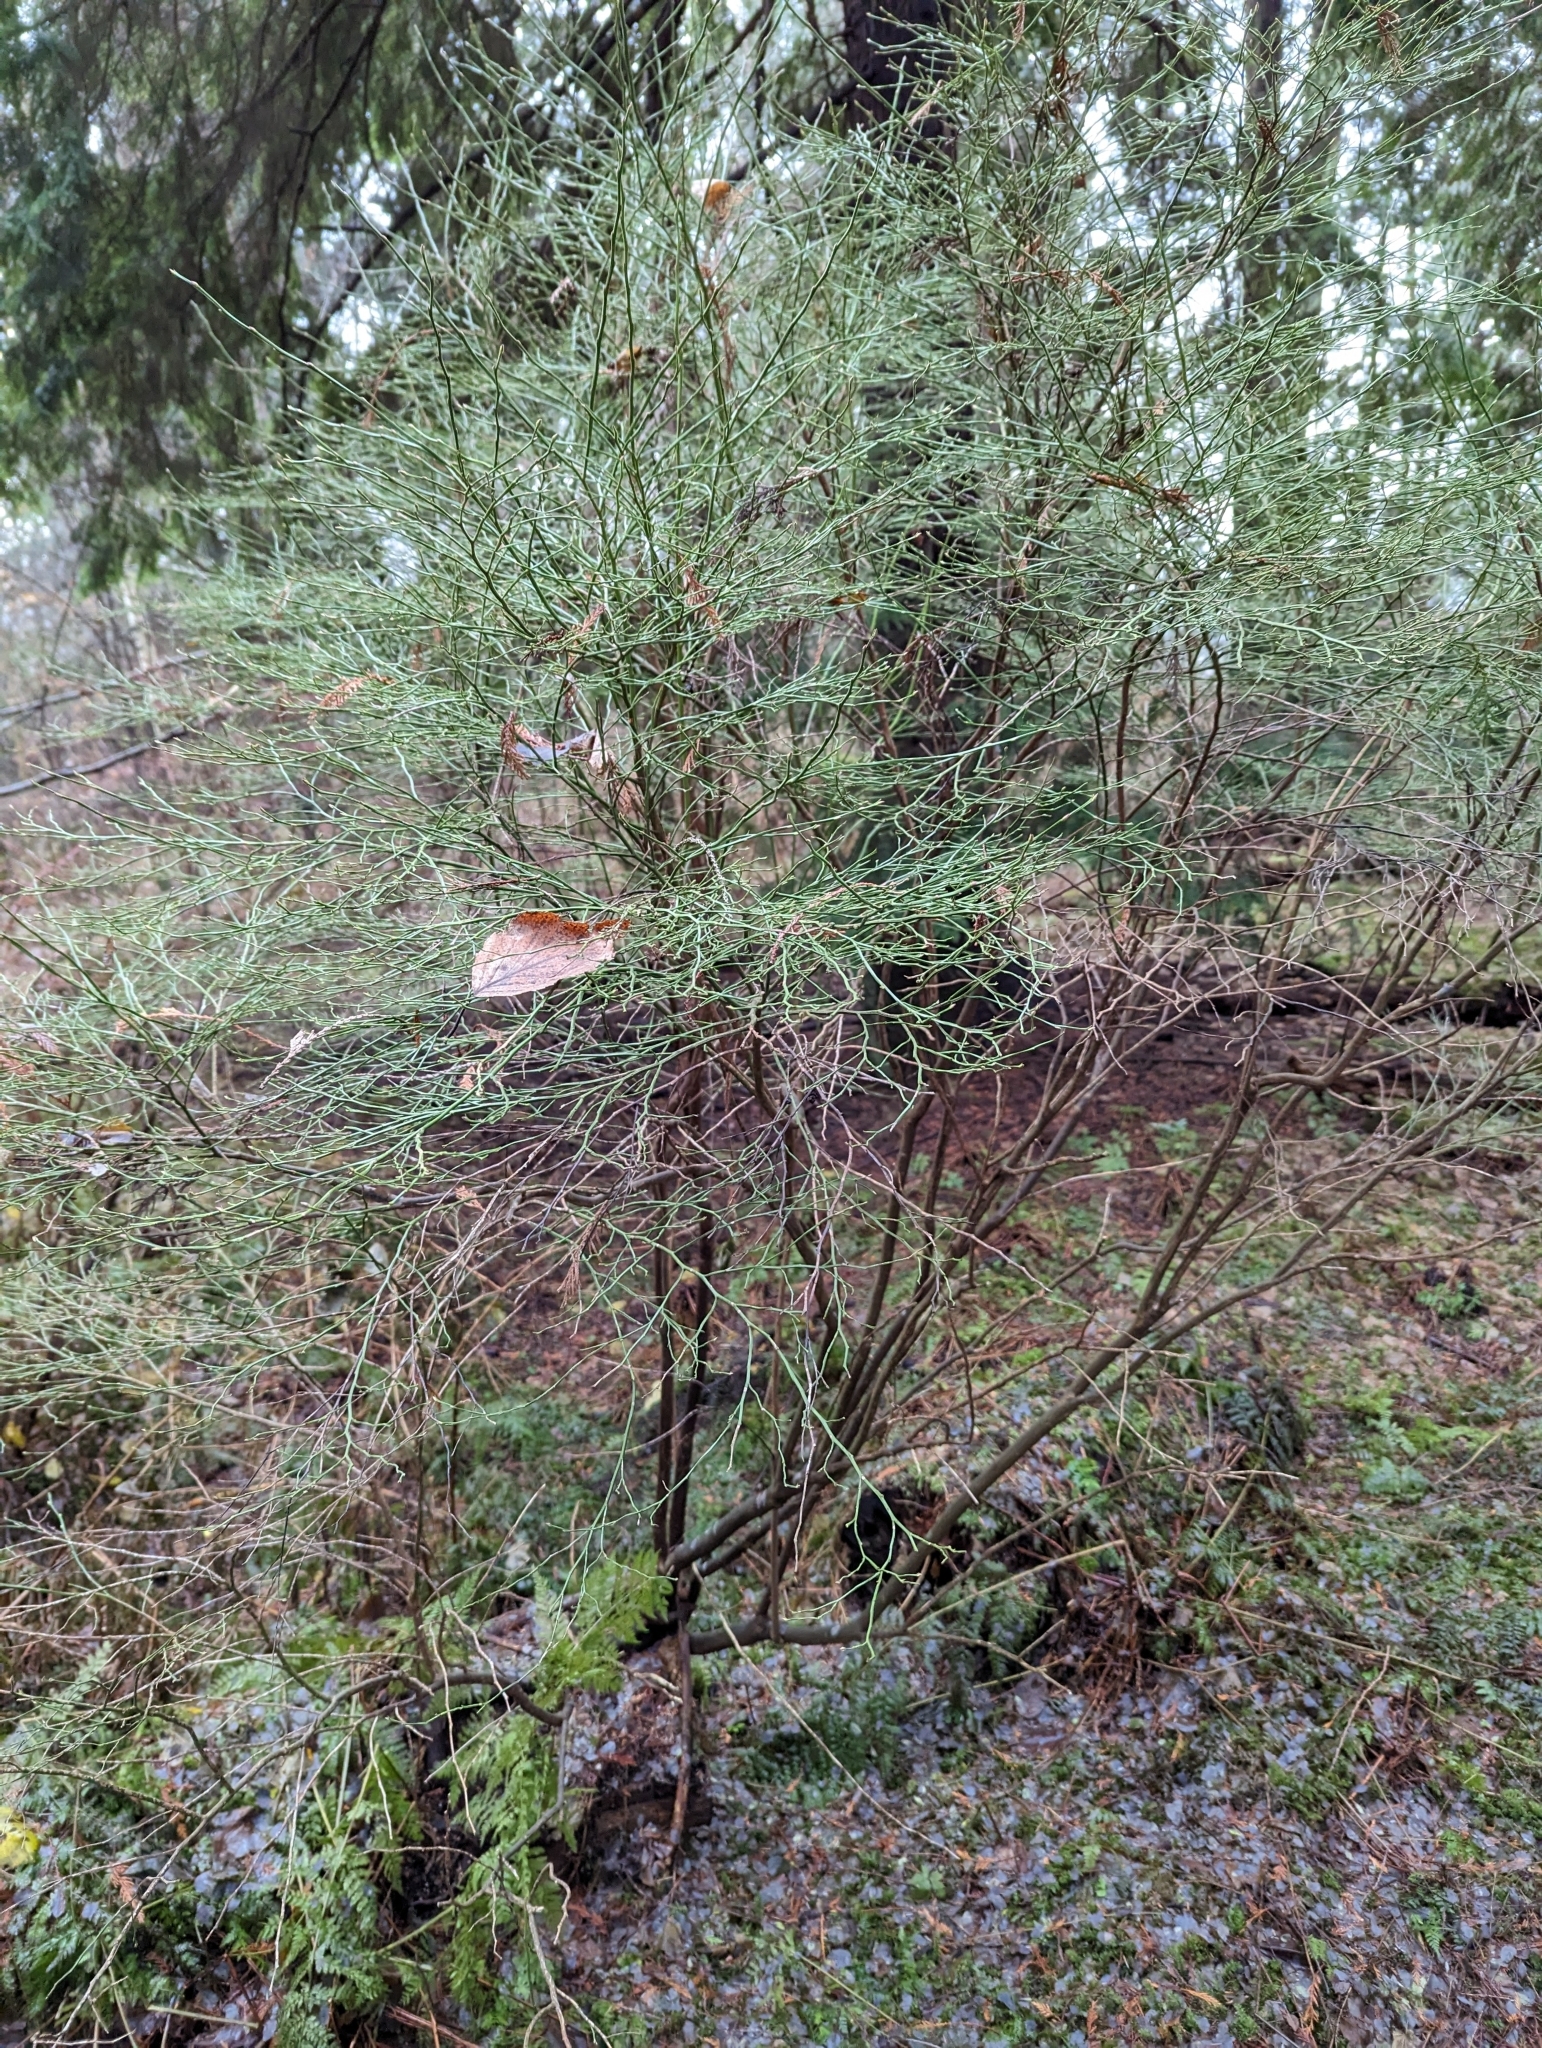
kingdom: Plantae
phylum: Tracheophyta
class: Magnoliopsida
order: Ericales
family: Ericaceae
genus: Vaccinium
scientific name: Vaccinium parvifolium
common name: Red-huckleberry
